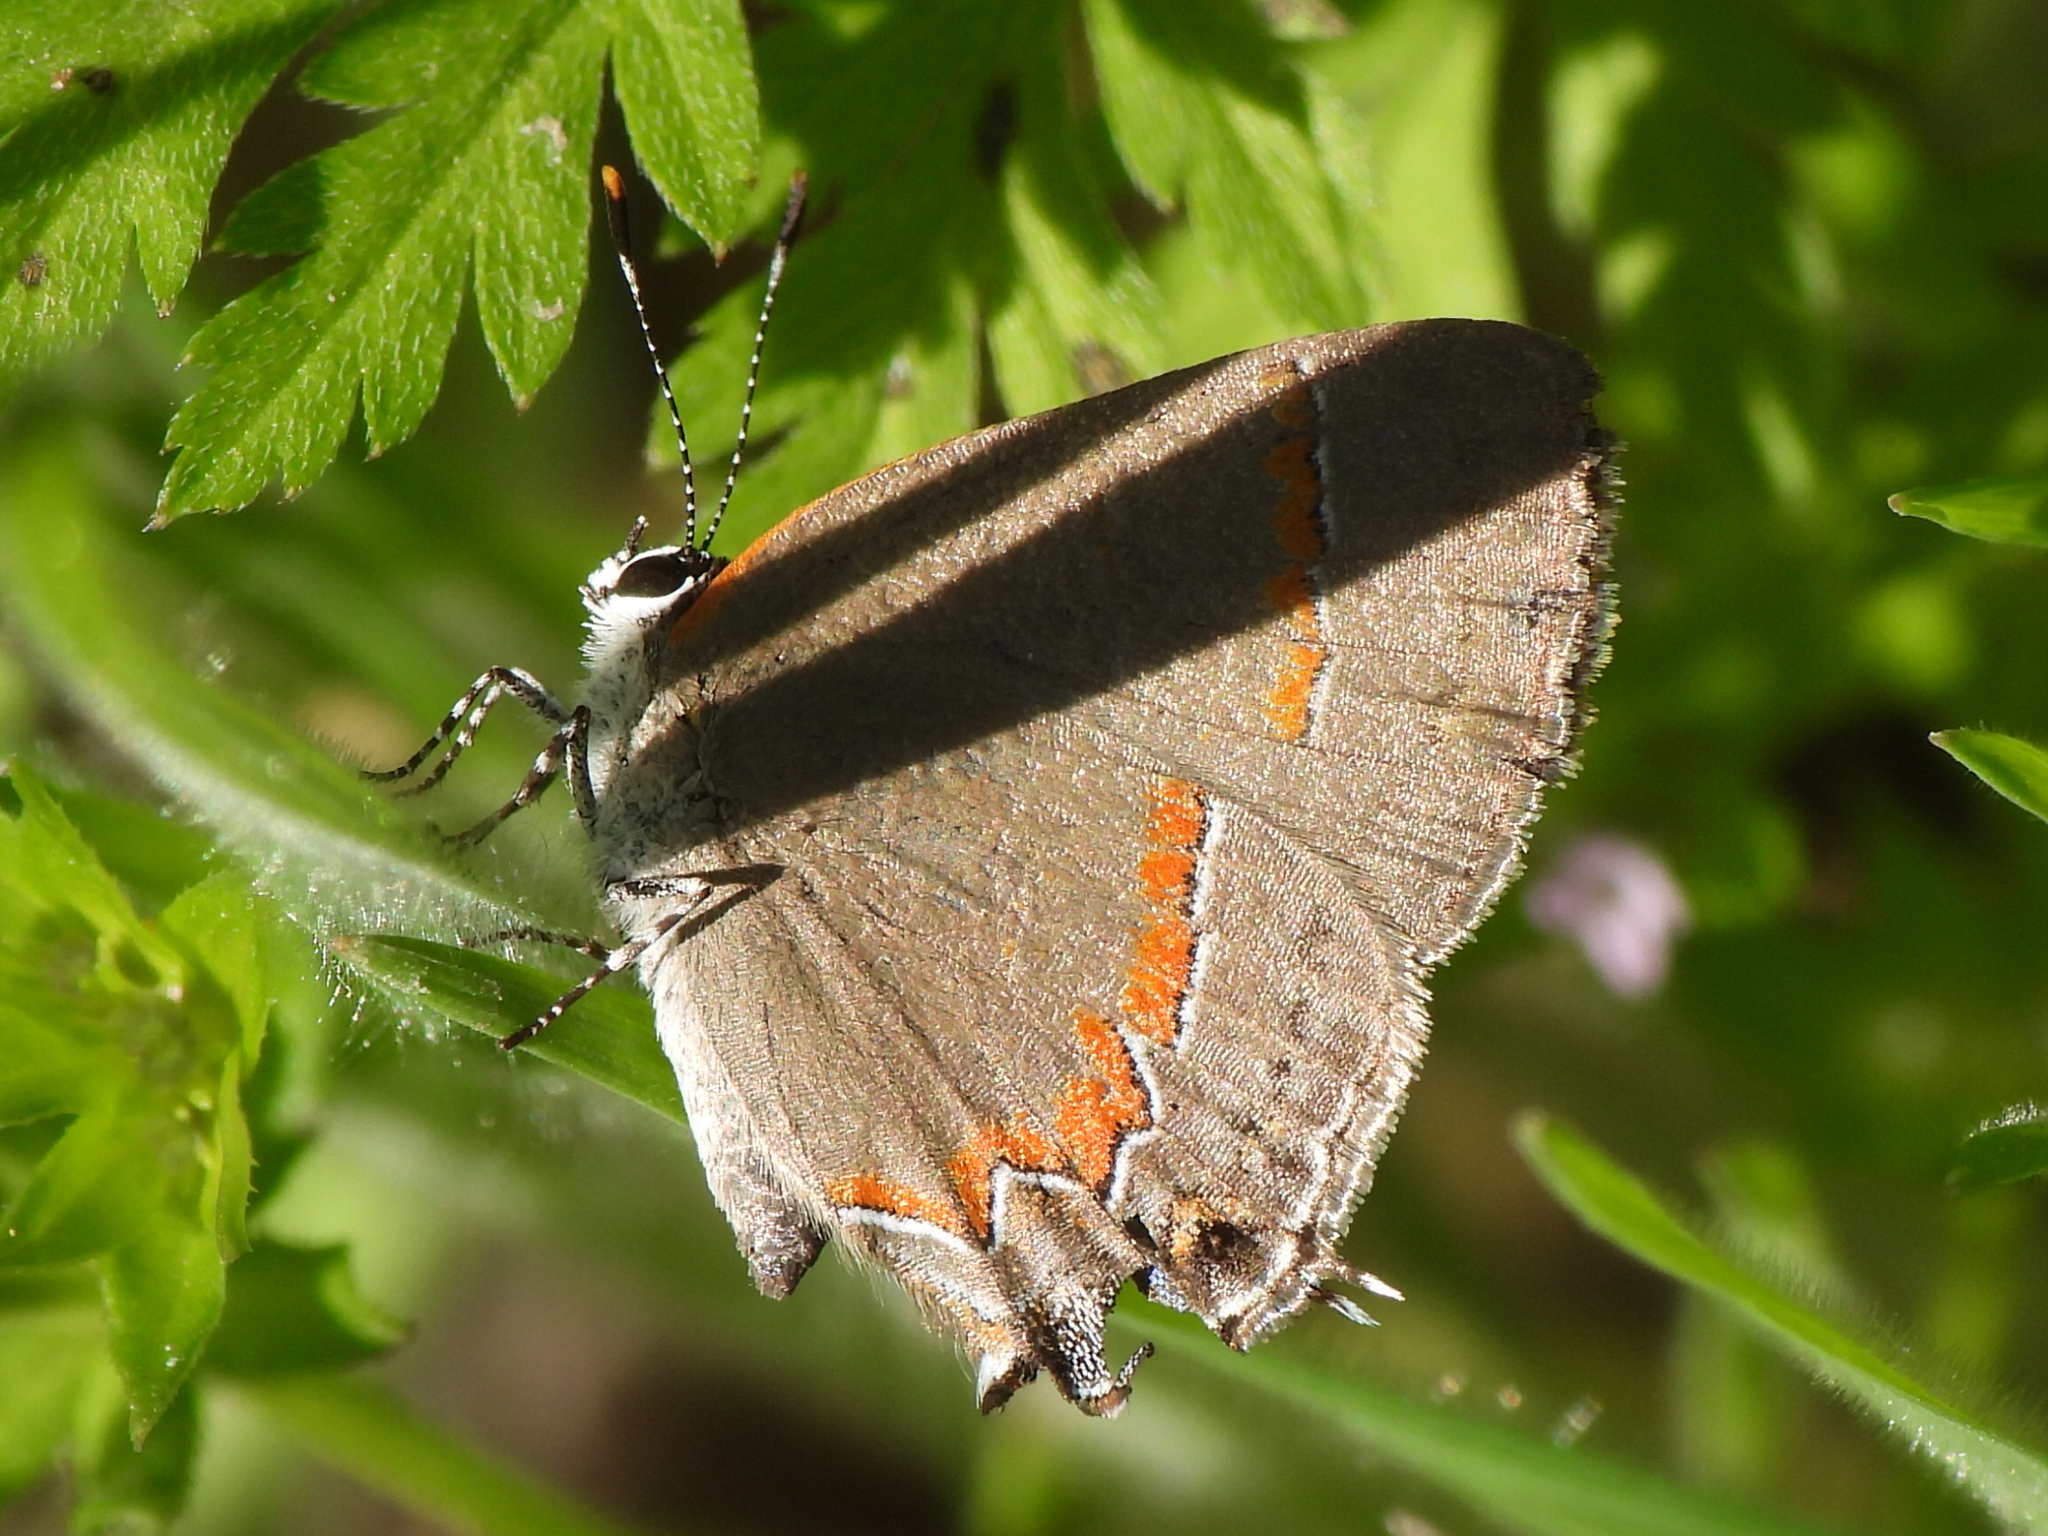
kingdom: Animalia
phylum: Arthropoda
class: Insecta
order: Lepidoptera
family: Lycaenidae
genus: Calycopis
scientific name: Calycopis cecrops
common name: Red-banded hairstreak
